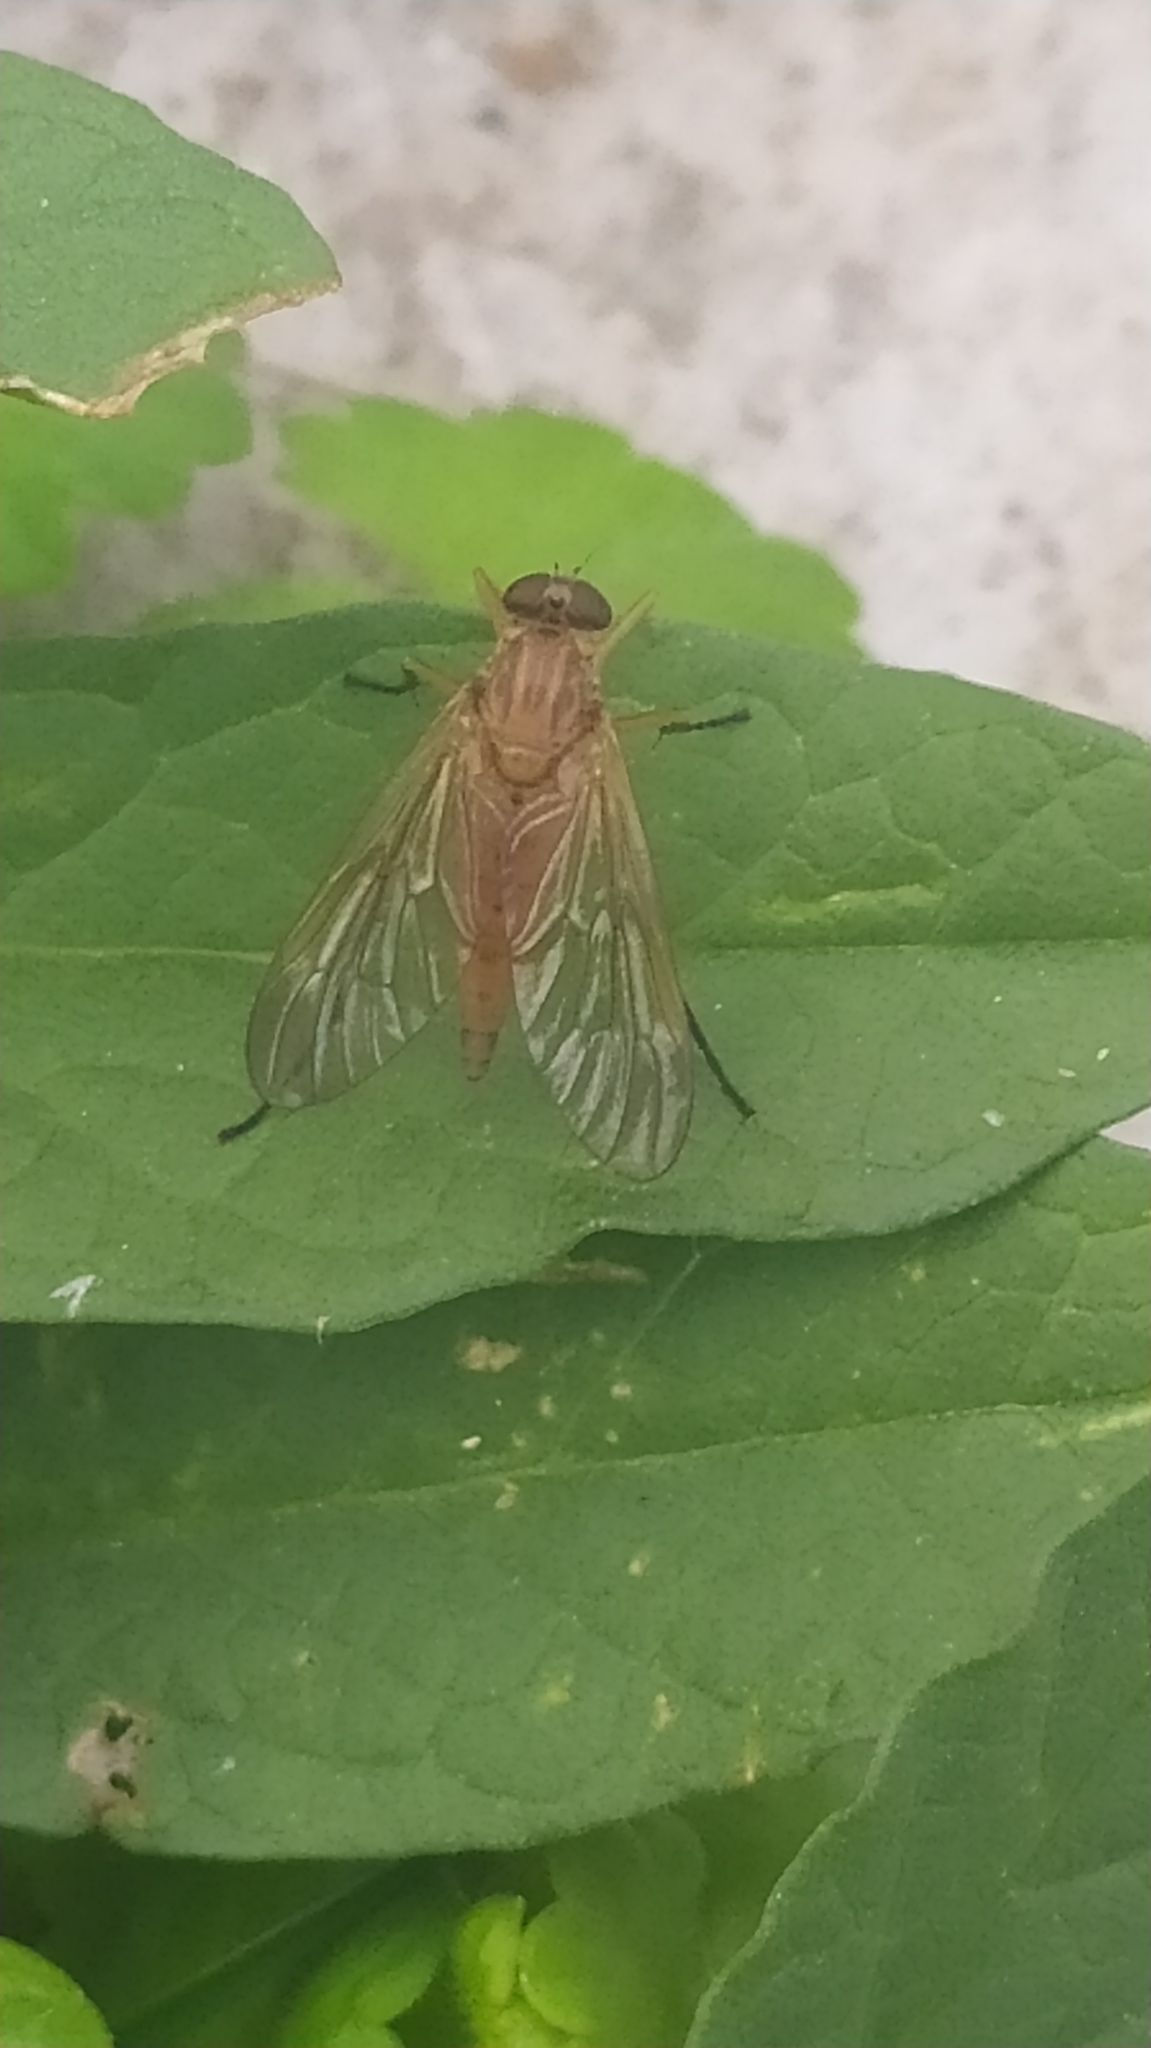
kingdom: Animalia
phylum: Arthropoda
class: Insecta
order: Diptera
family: Rhagionidae
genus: Rhagio
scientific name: Rhagio tringaria
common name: Marsh snipefly
